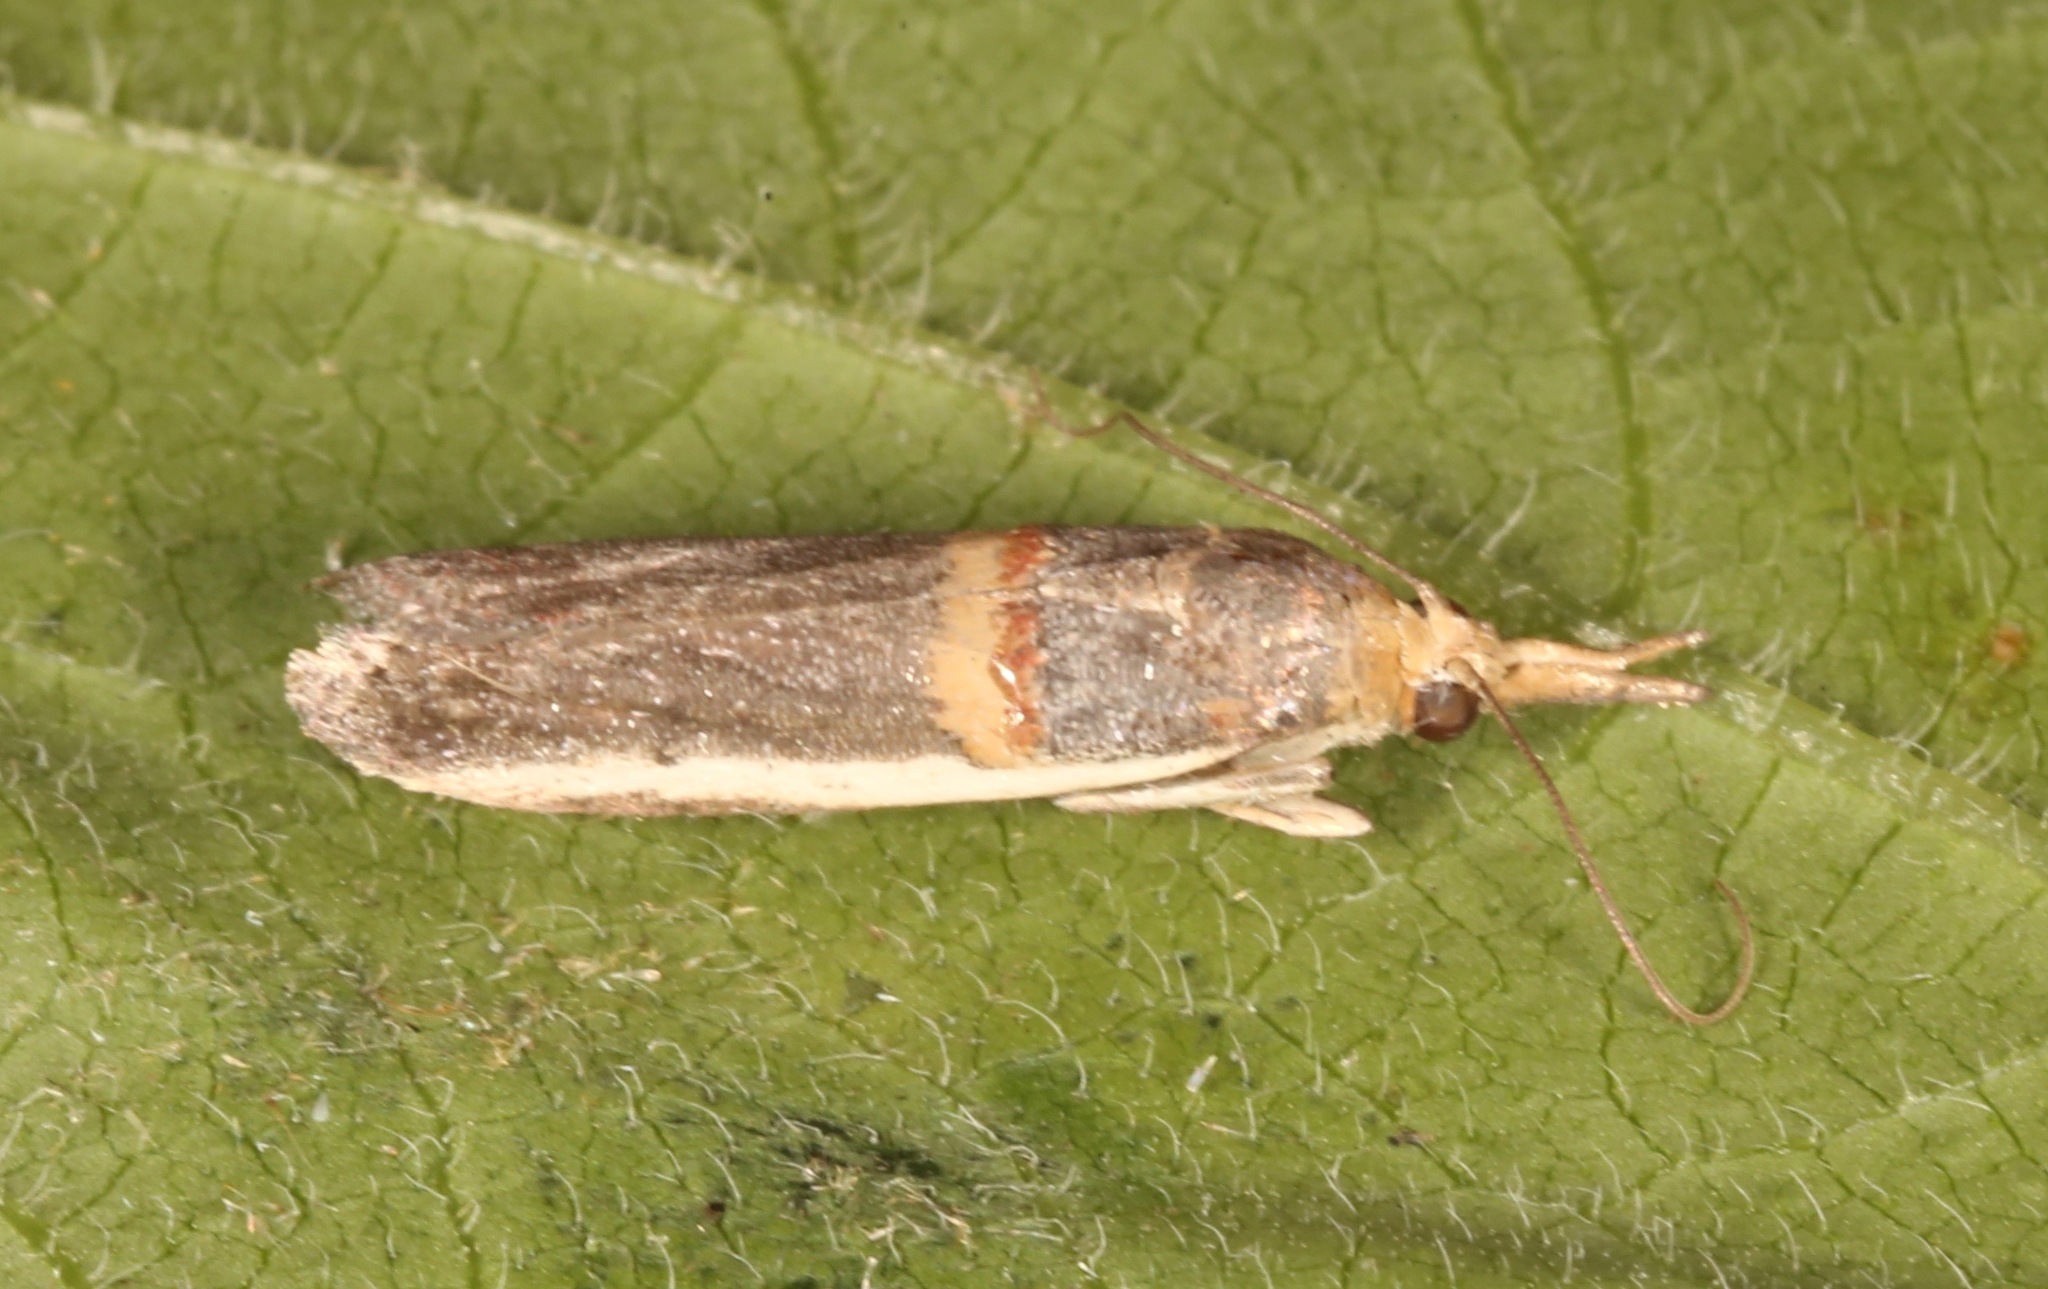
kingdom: Animalia
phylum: Arthropoda
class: Insecta
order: Lepidoptera
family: Pyralidae
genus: Etiella
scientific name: Etiella zinckenella
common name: Gold-banded etiella moth
